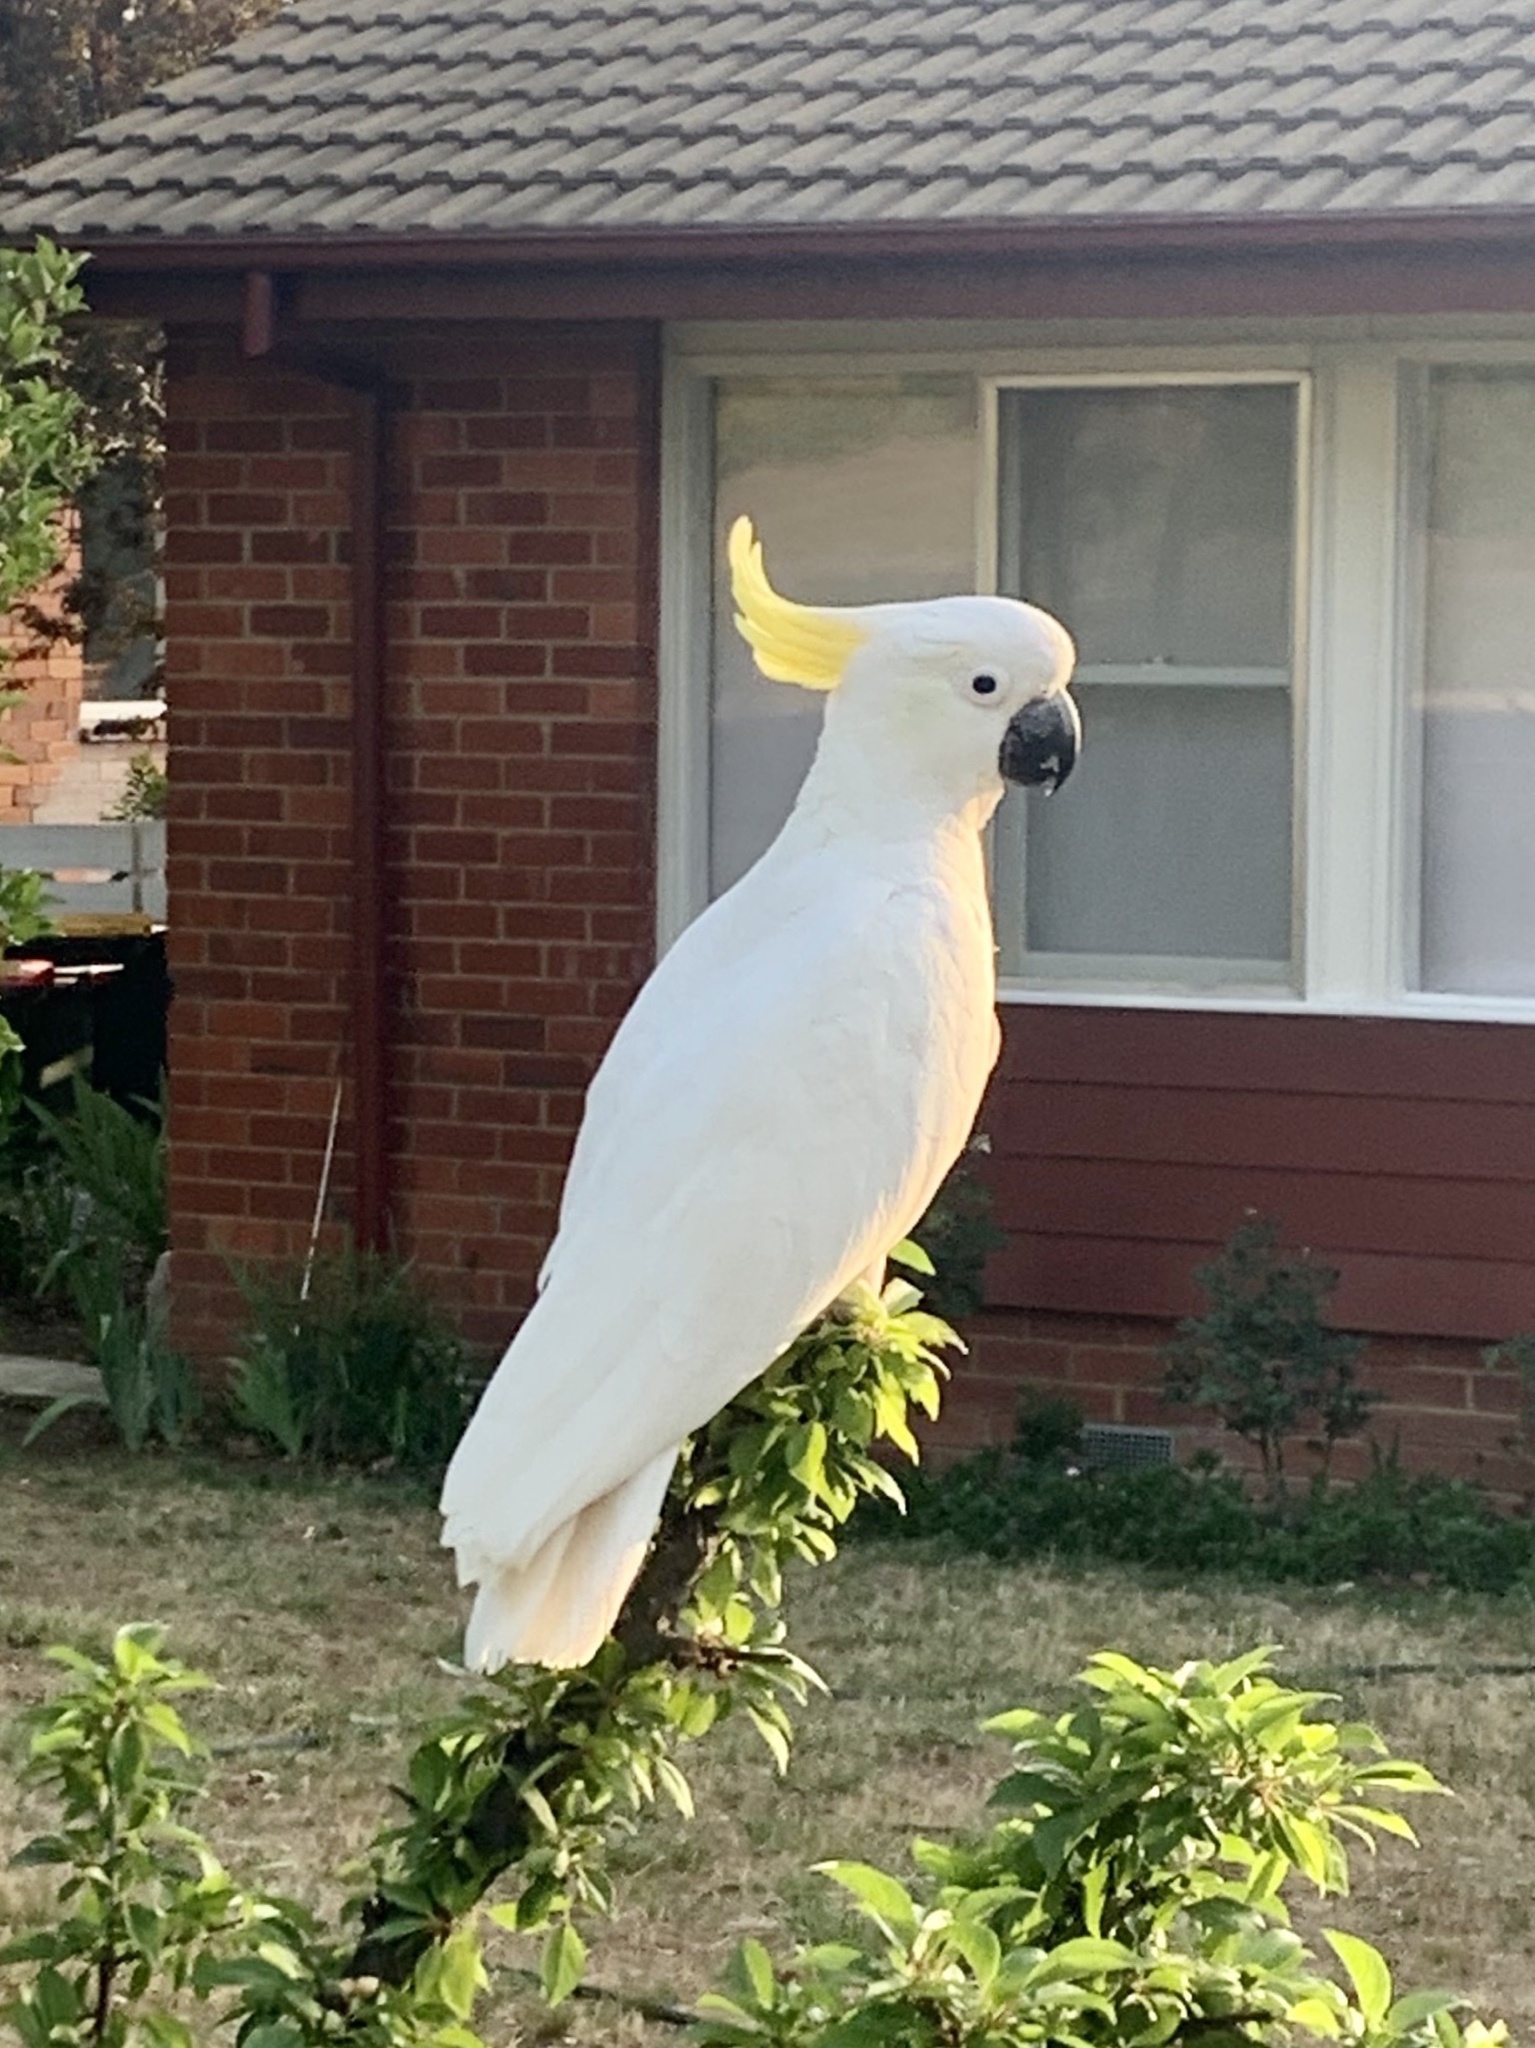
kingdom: Animalia
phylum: Chordata
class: Aves
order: Psittaciformes
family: Psittacidae
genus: Cacatua
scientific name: Cacatua galerita
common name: Sulphur-crested cockatoo
